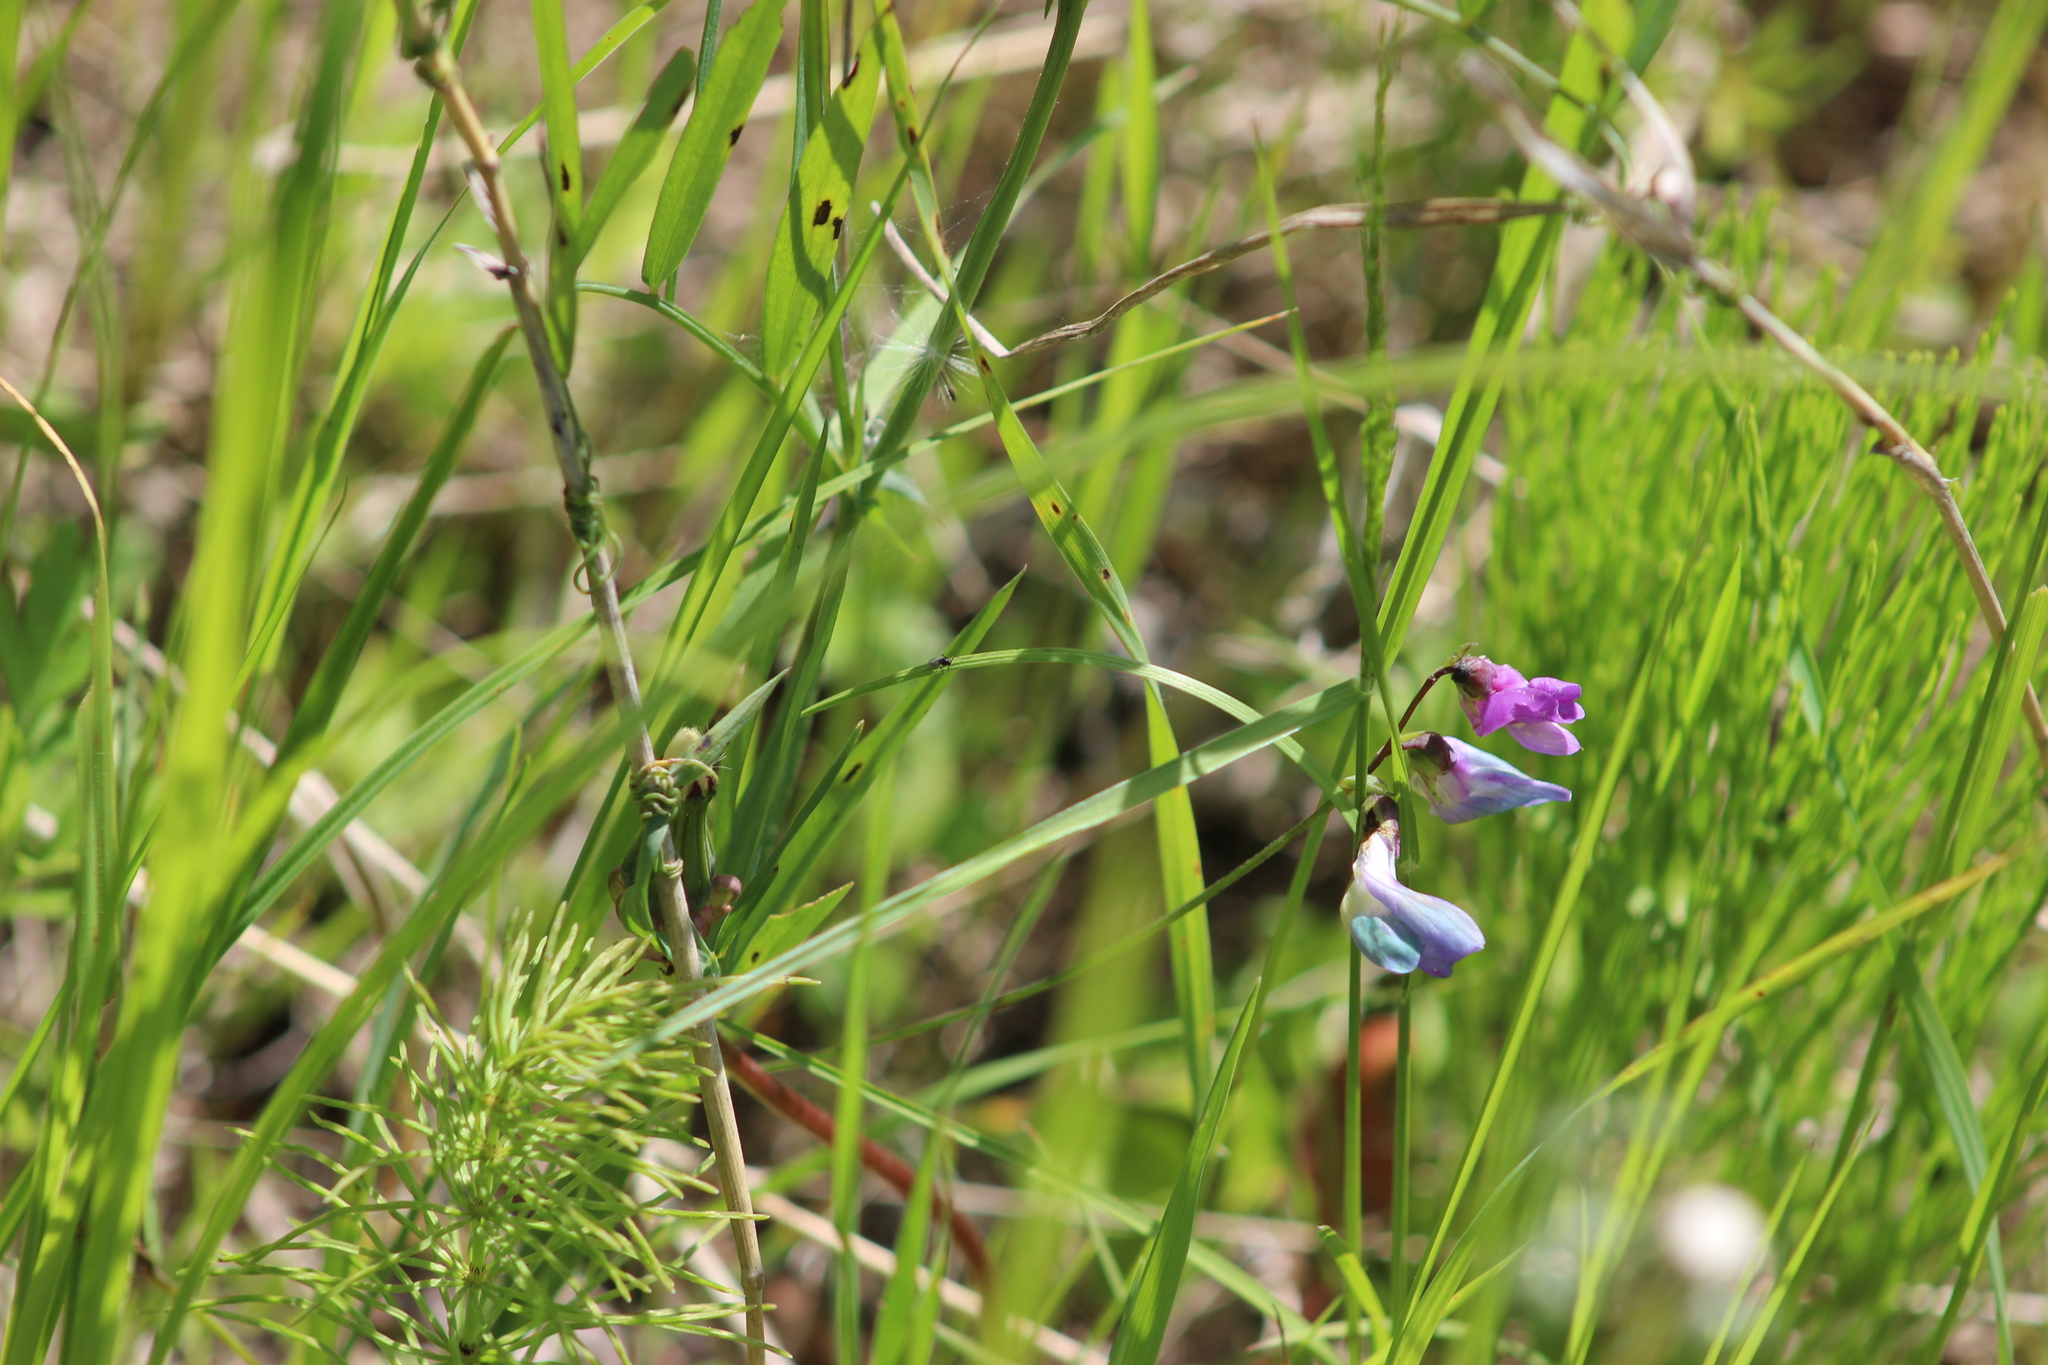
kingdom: Plantae
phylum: Tracheophyta
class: Magnoliopsida
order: Fabales
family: Fabaceae
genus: Lathyrus
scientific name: Lathyrus palustris
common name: Marsh pea
